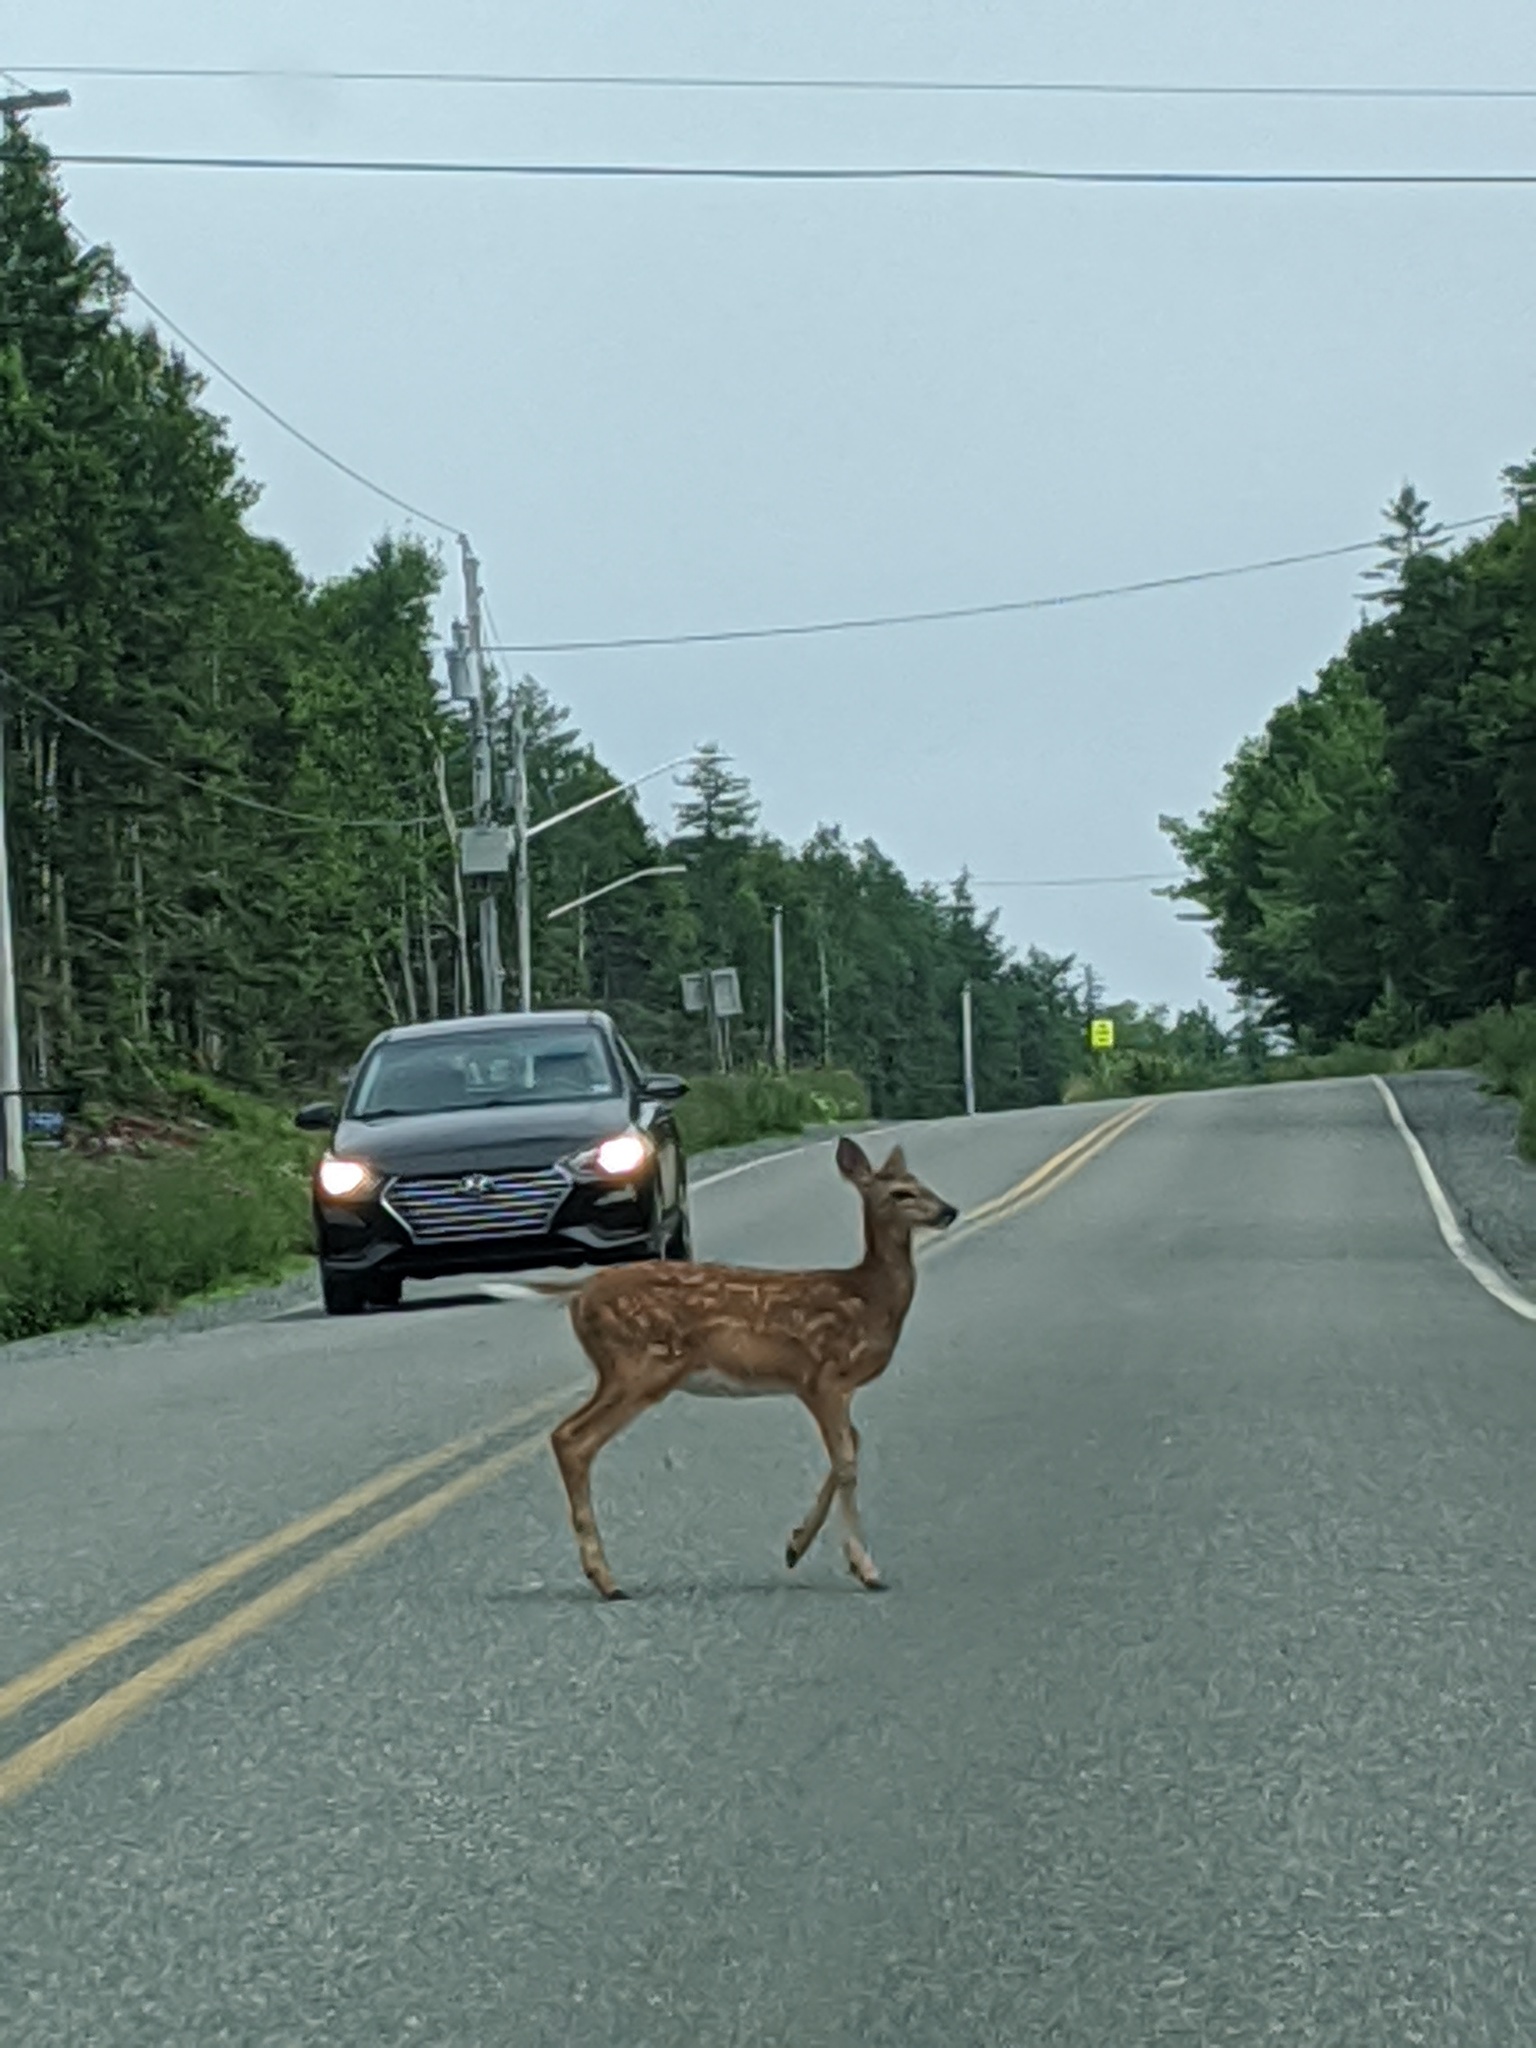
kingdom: Animalia
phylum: Chordata
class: Mammalia
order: Artiodactyla
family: Cervidae
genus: Odocoileus
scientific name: Odocoileus virginianus
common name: White-tailed deer
